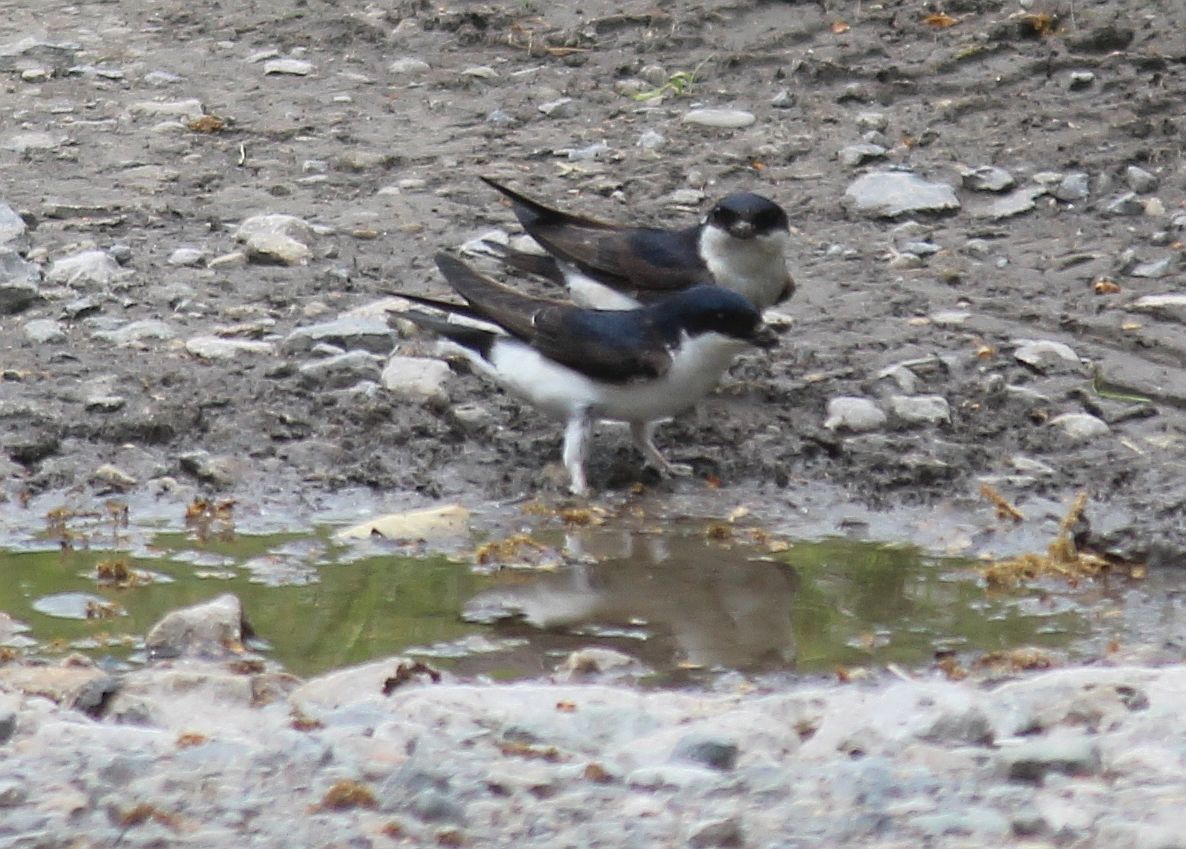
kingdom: Animalia
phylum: Chordata
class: Aves
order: Passeriformes
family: Hirundinidae
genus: Delichon
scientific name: Delichon urbicum
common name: Common house martin
